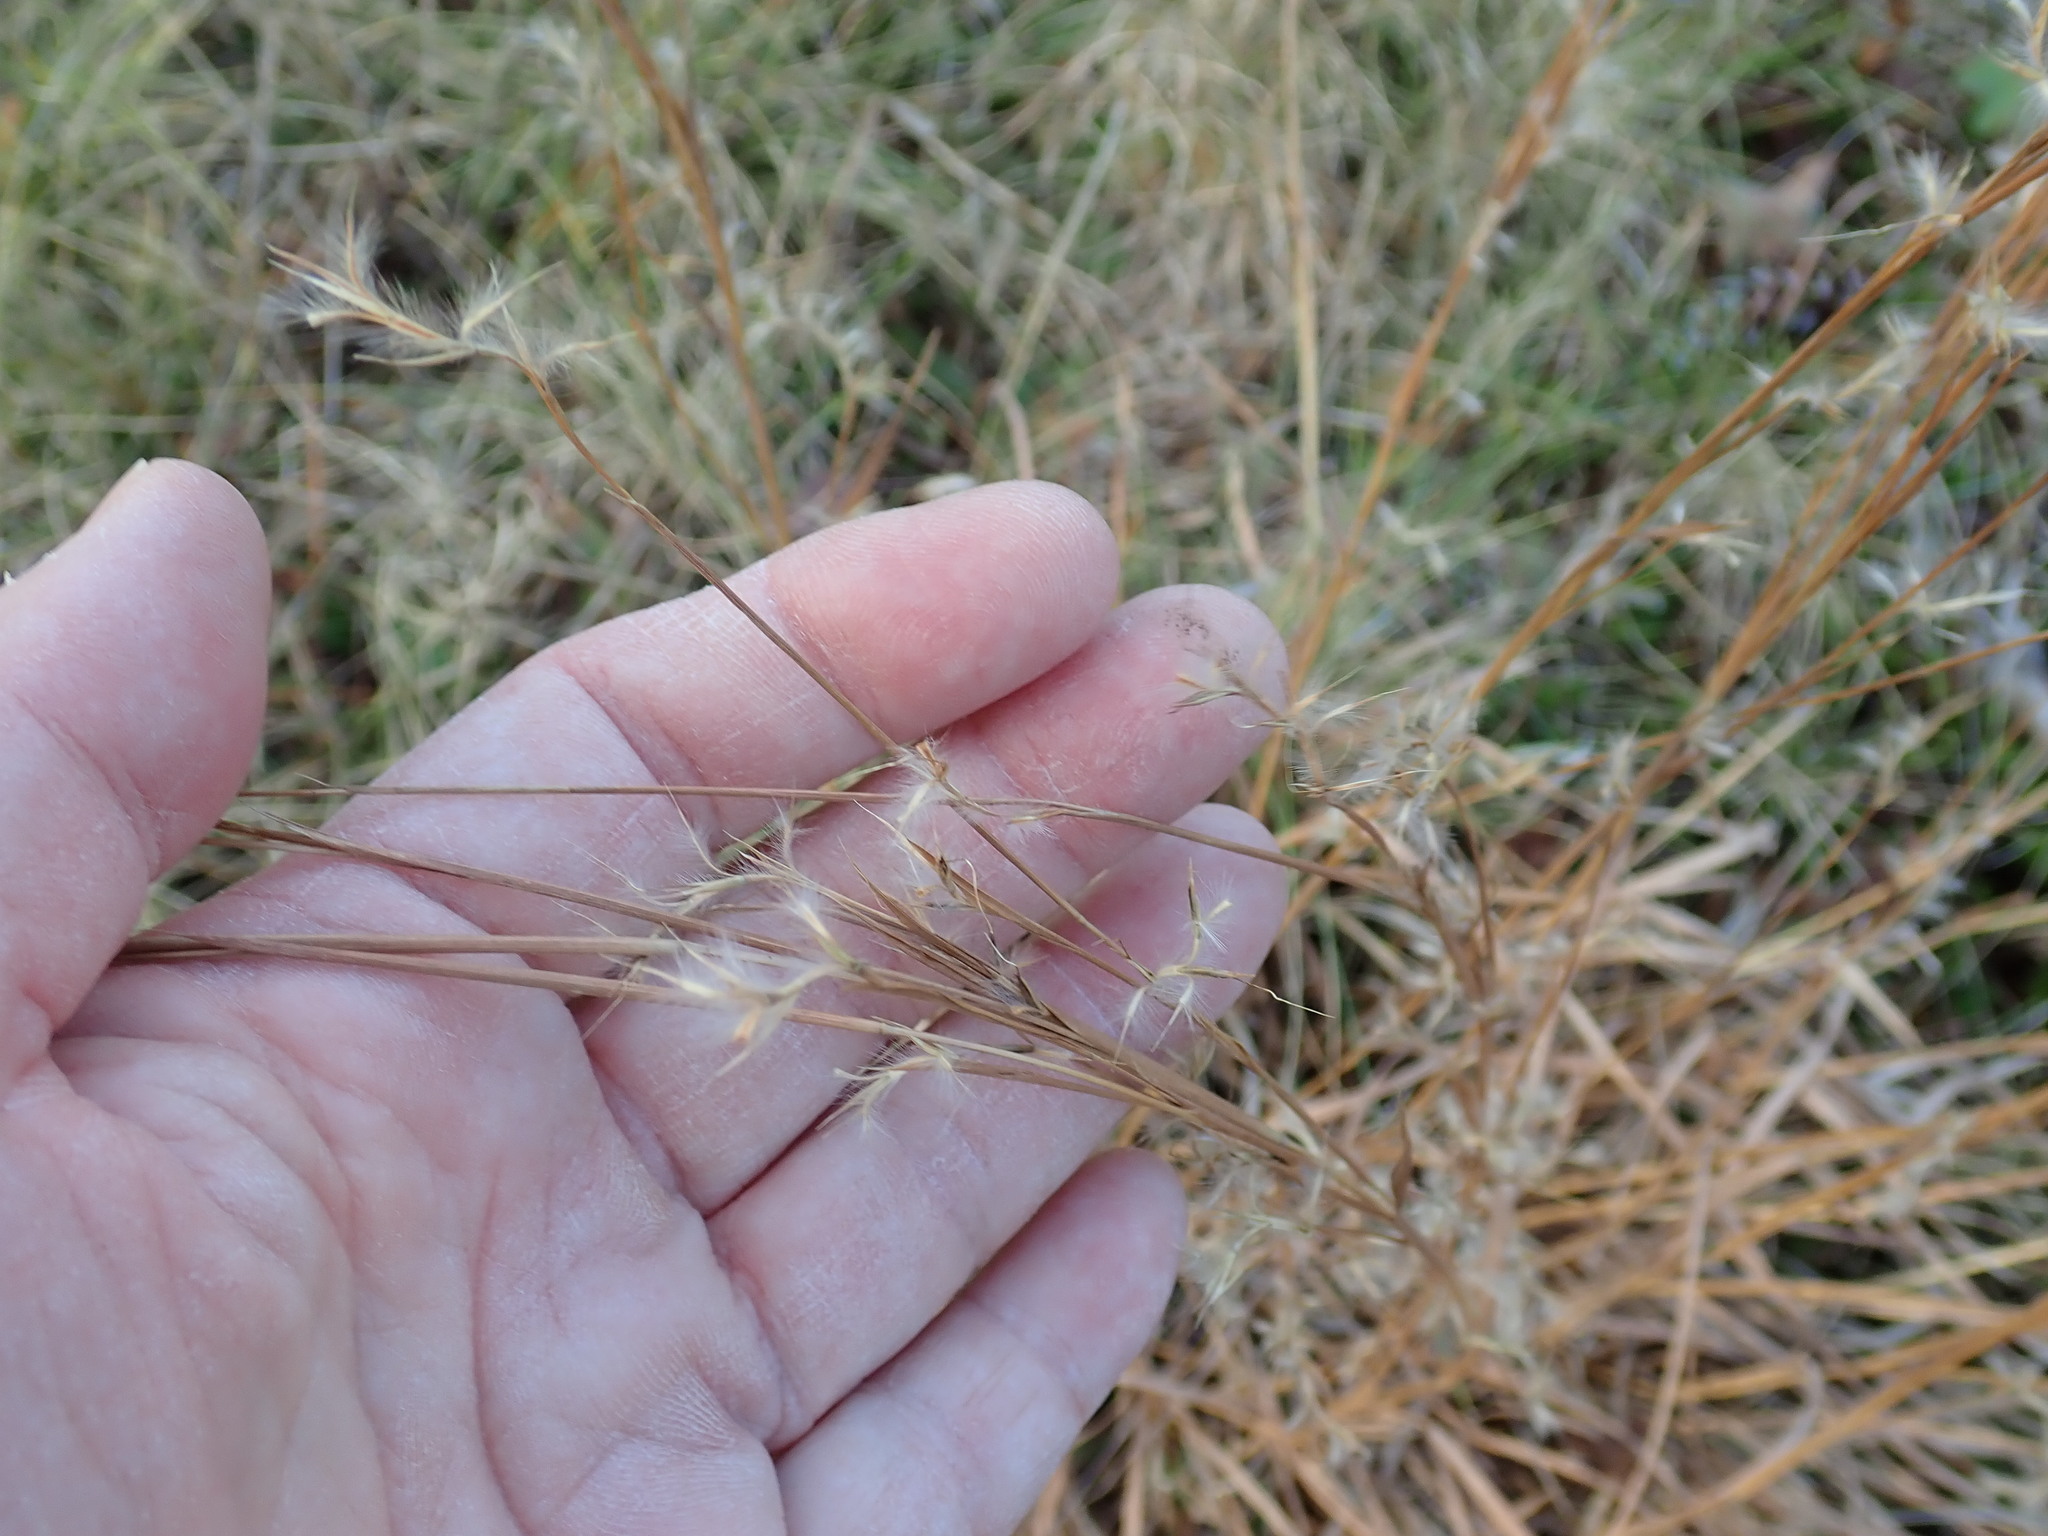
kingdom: Plantae
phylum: Tracheophyta
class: Liliopsida
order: Poales
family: Poaceae
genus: Schizachyrium
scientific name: Schizachyrium scoparium
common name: Little bluestem
